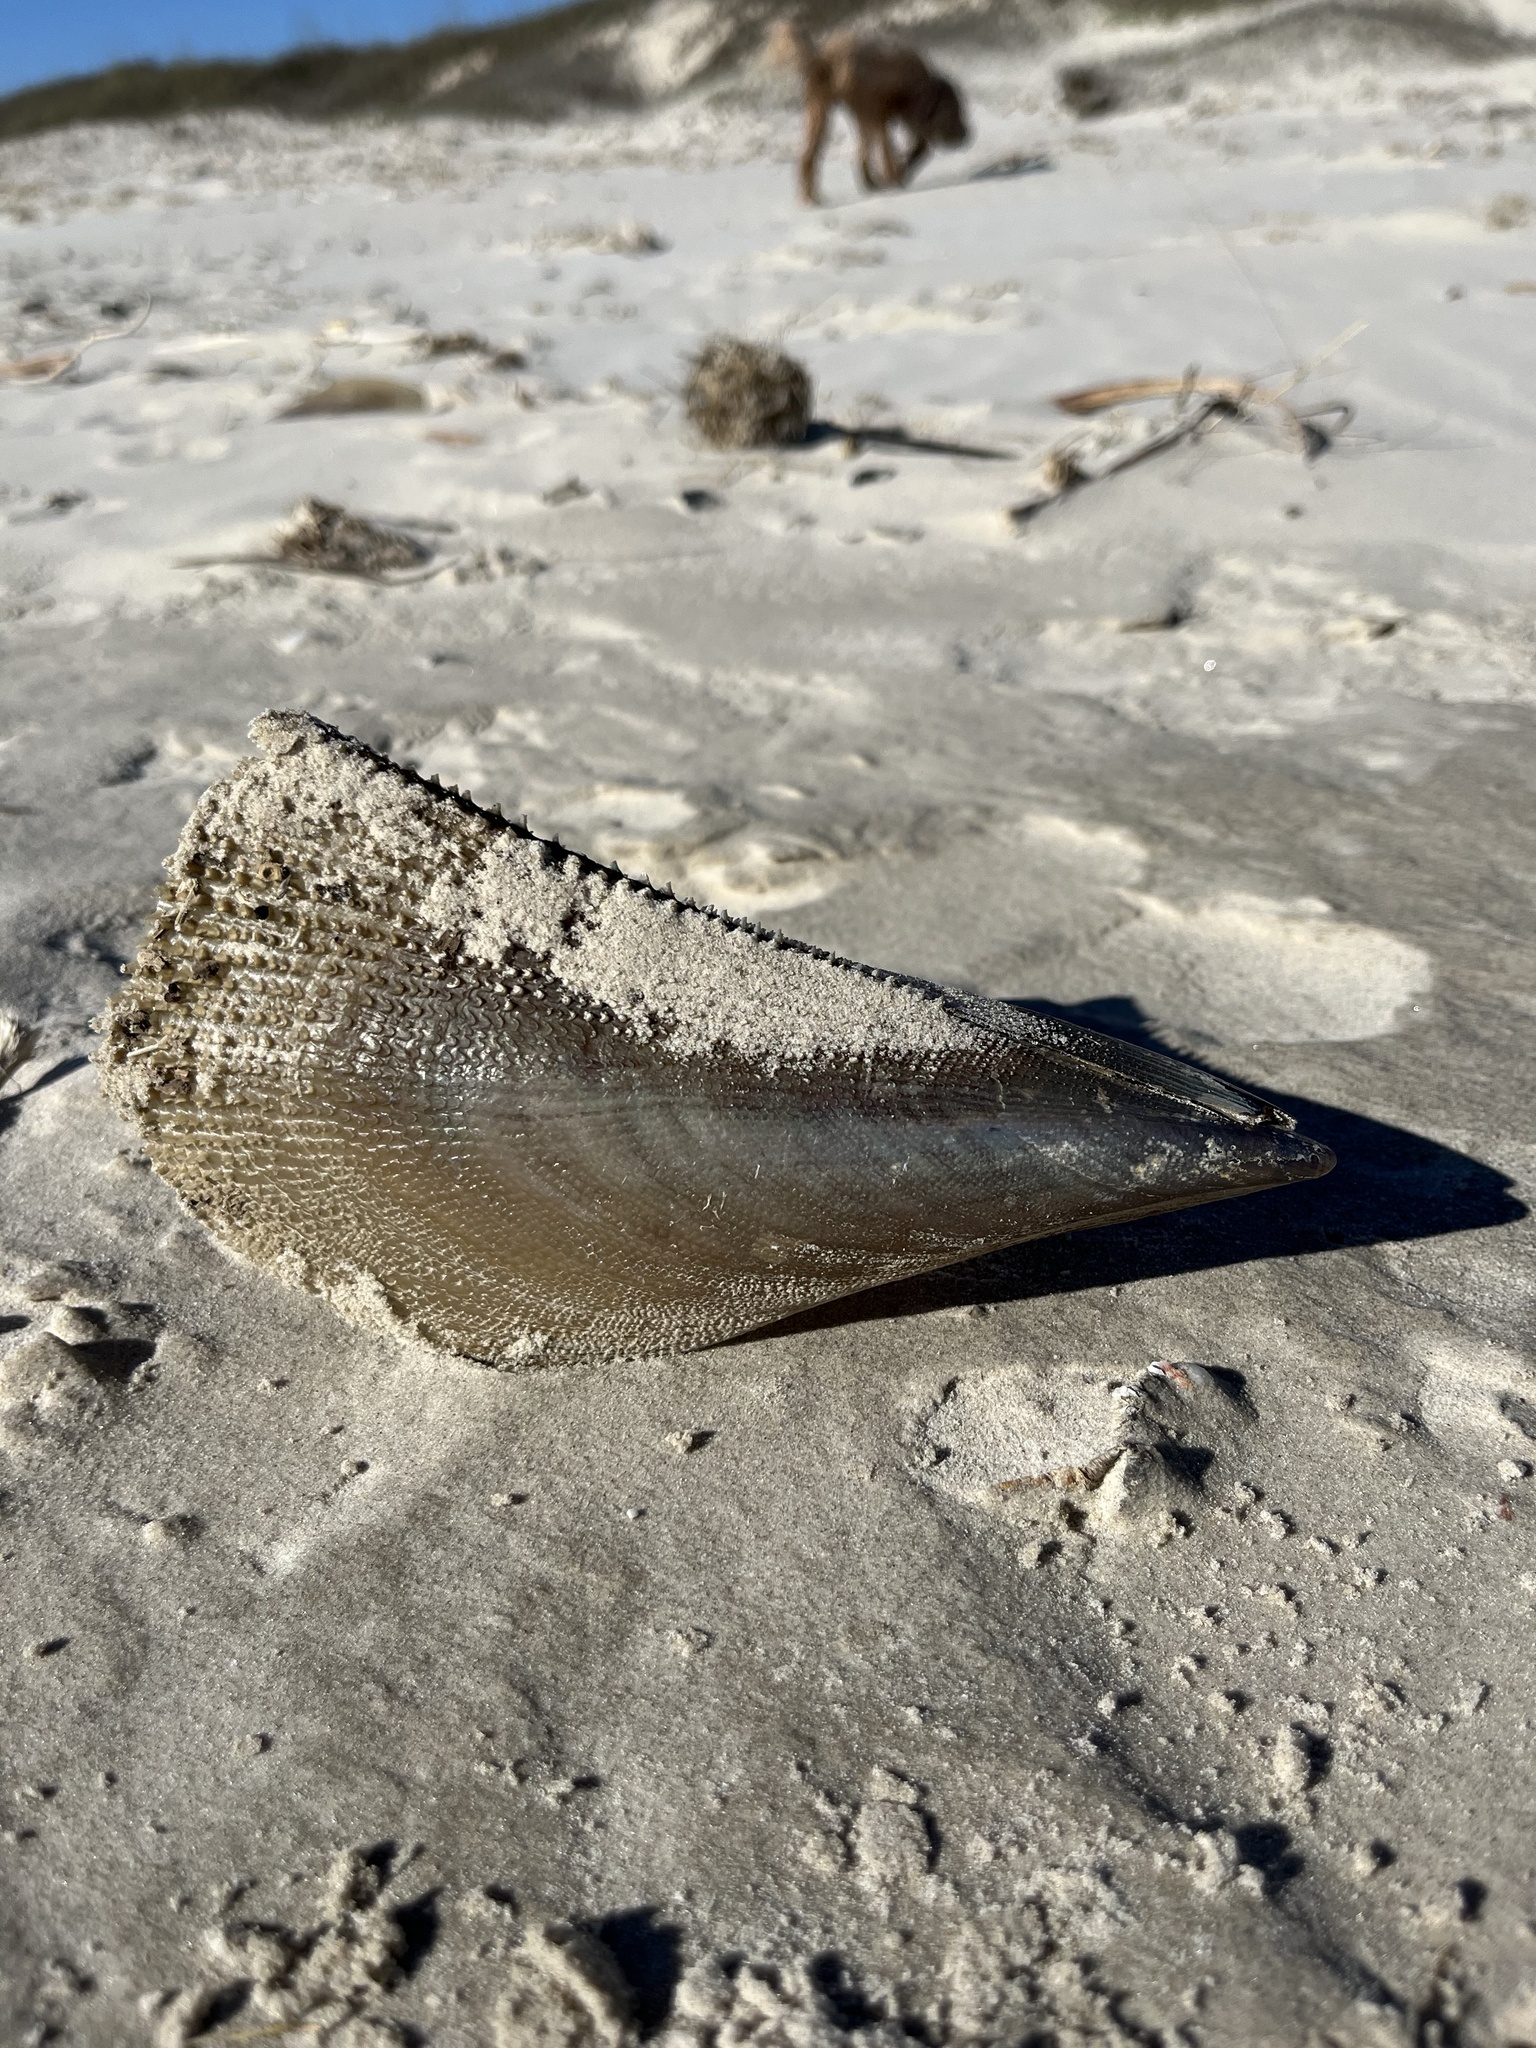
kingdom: Animalia
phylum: Mollusca
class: Bivalvia
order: Ostreida
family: Pinnidae
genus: Atrina
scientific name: Atrina serrata
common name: Saw-toothed penshell
